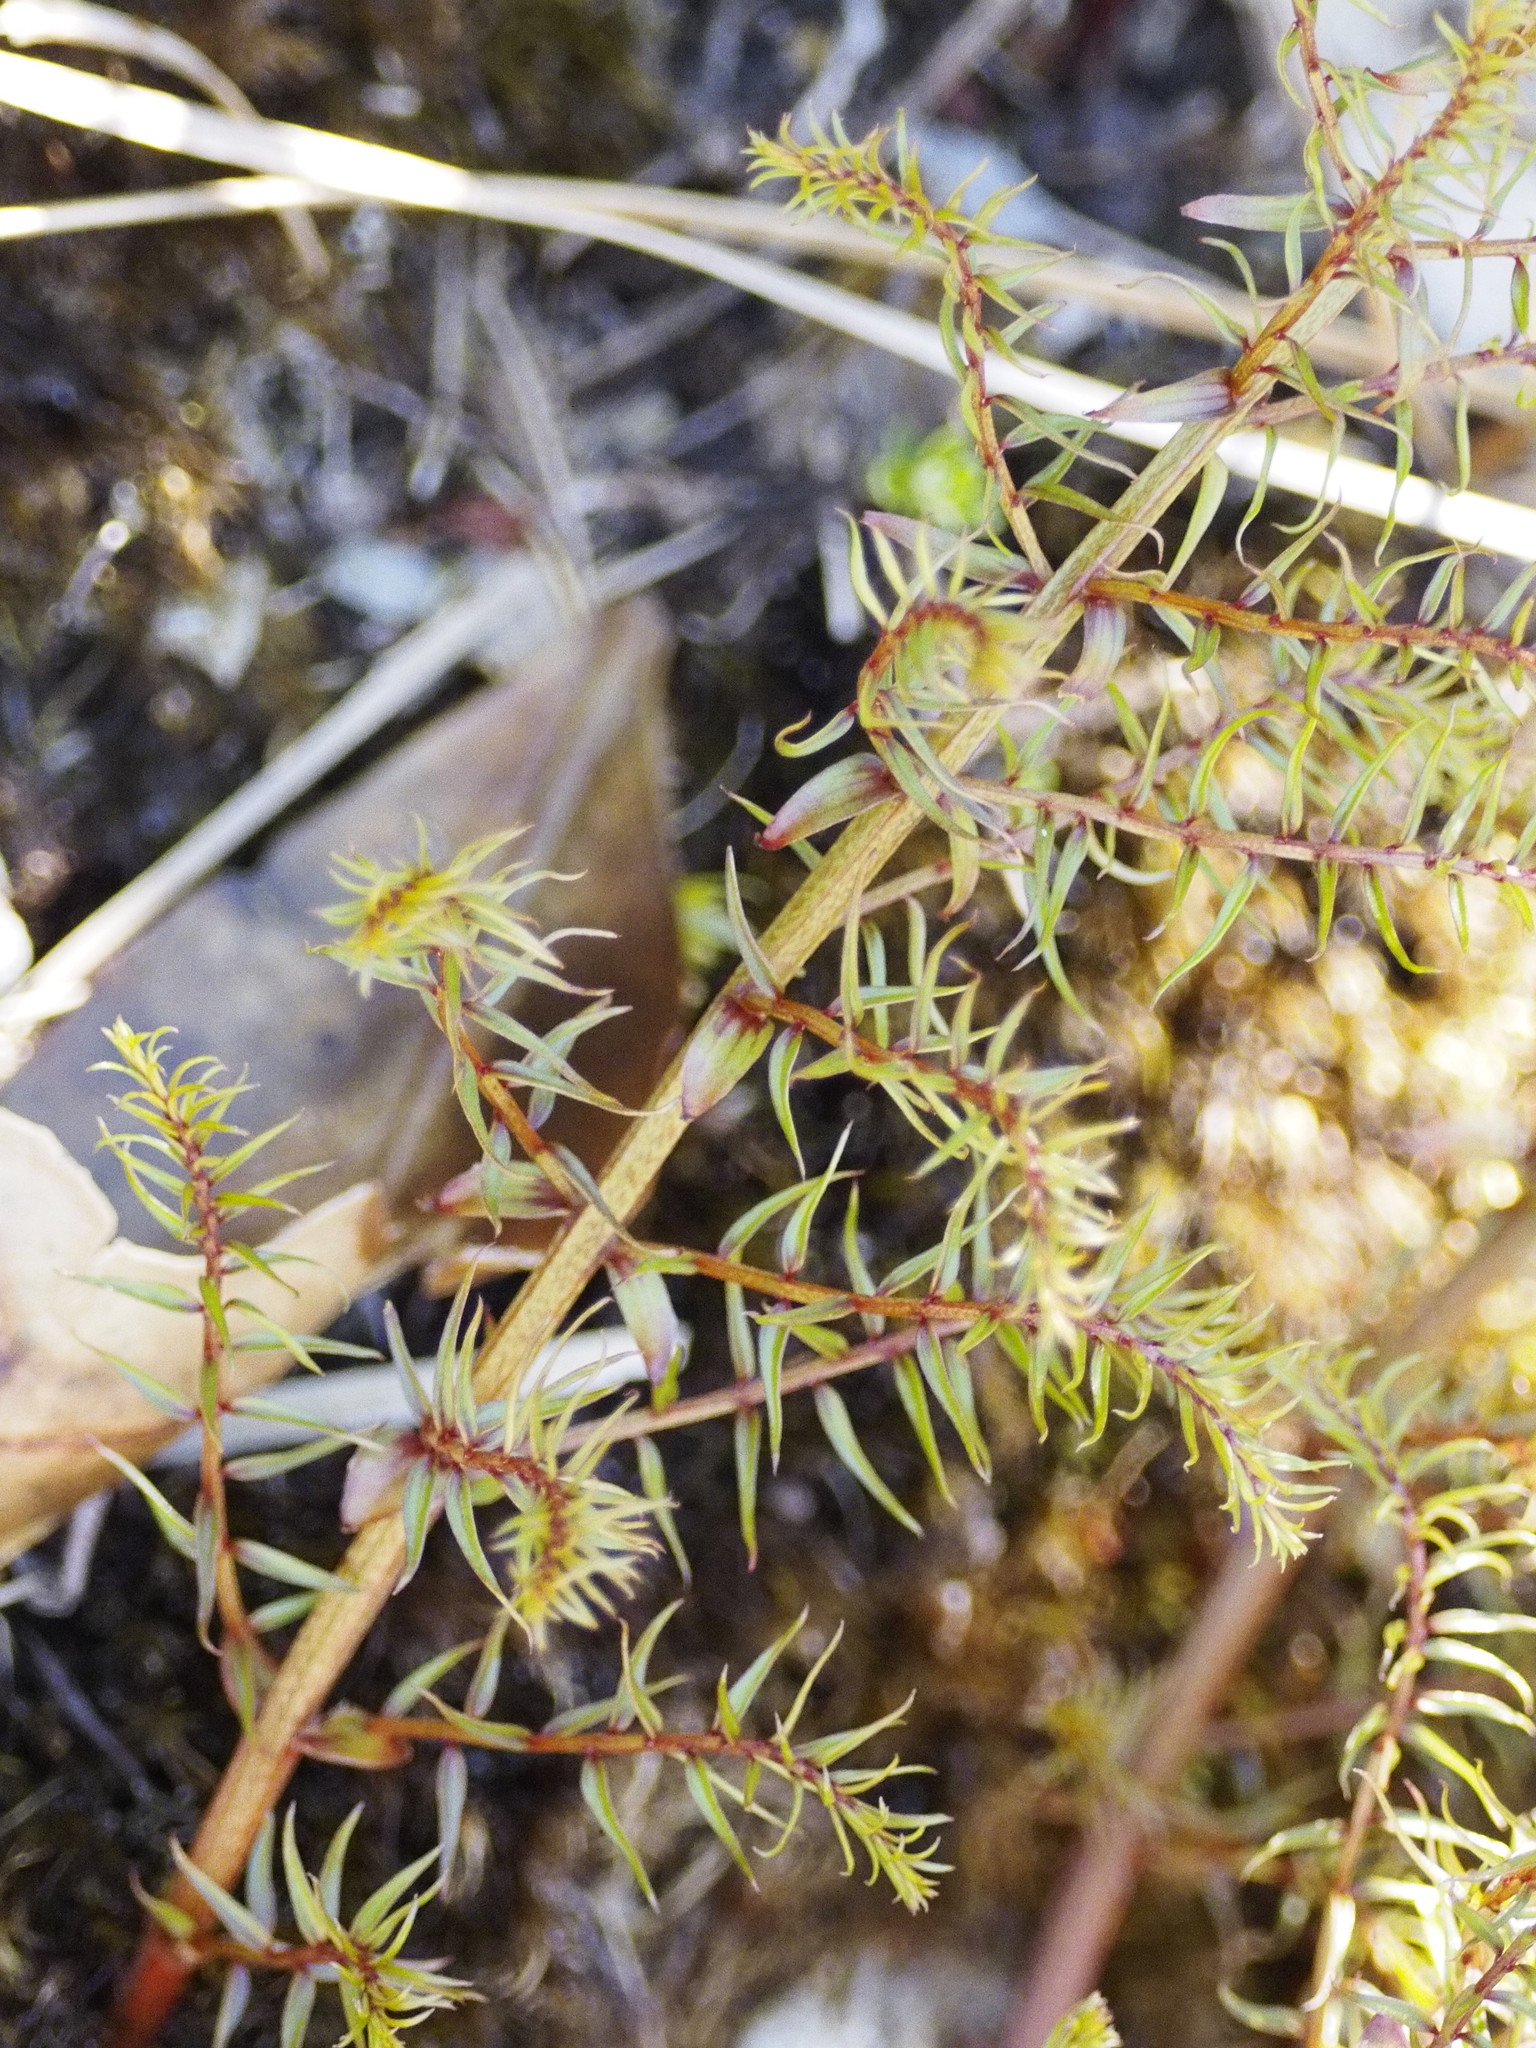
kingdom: Plantae
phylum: Tracheophyta
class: Magnoliopsida
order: Cucurbitales
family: Coriariaceae
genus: Coriaria
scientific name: Coriaria angustissima
